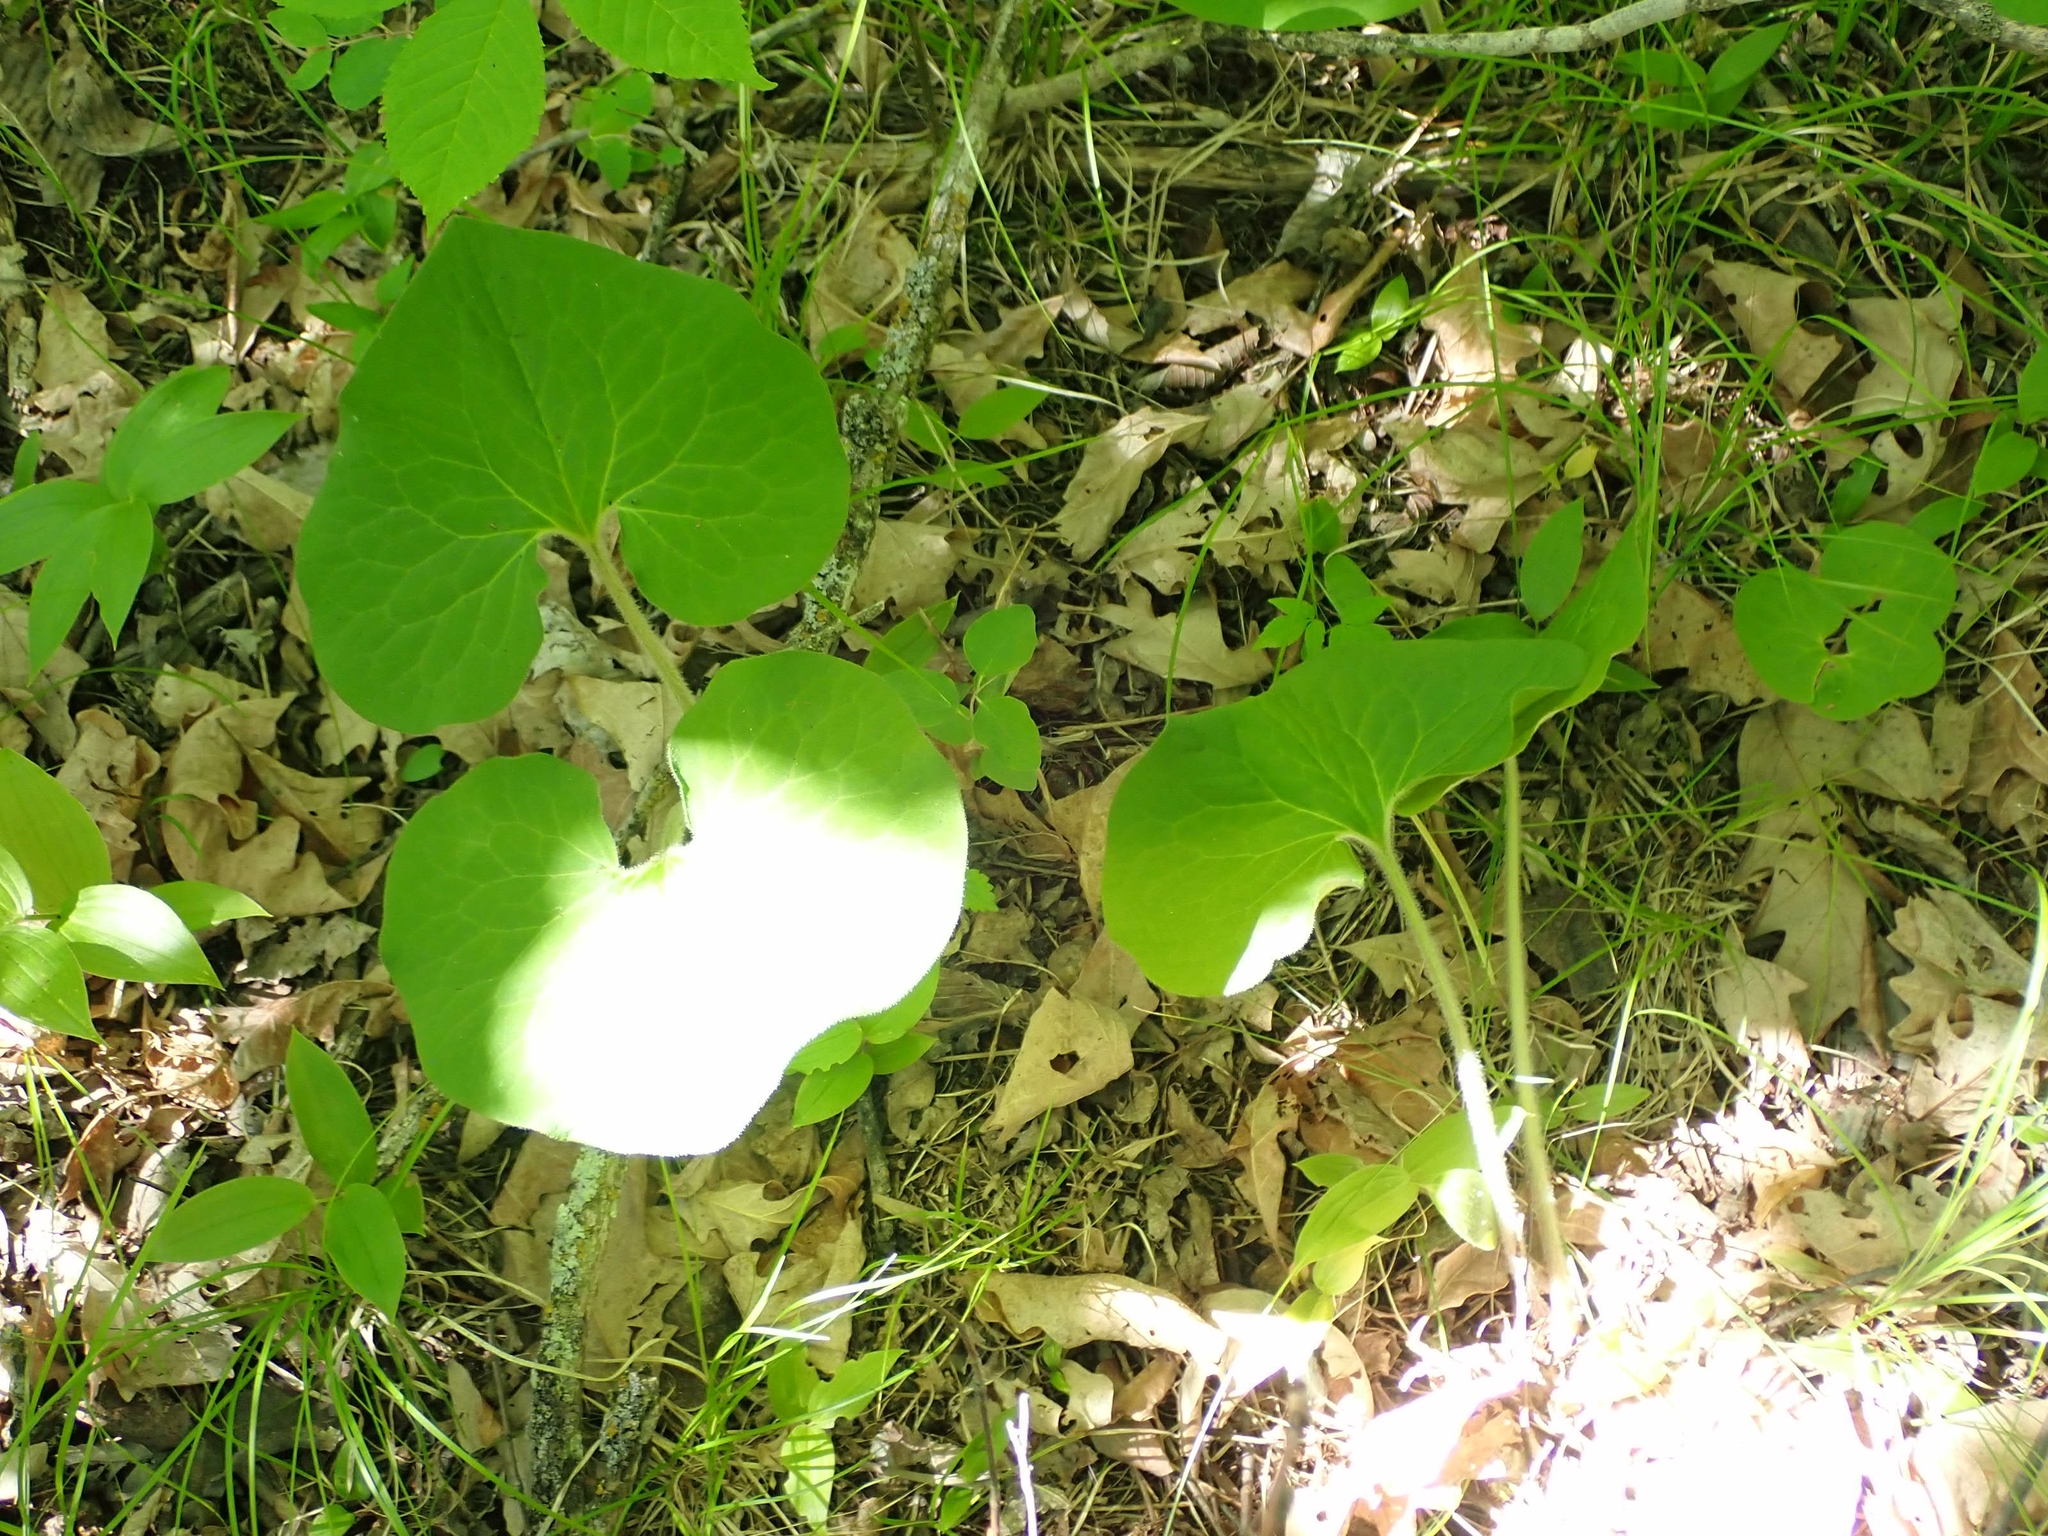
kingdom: Plantae
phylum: Tracheophyta
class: Magnoliopsida
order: Piperales
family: Aristolochiaceae
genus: Asarum
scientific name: Asarum canadense
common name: Wild ginger
